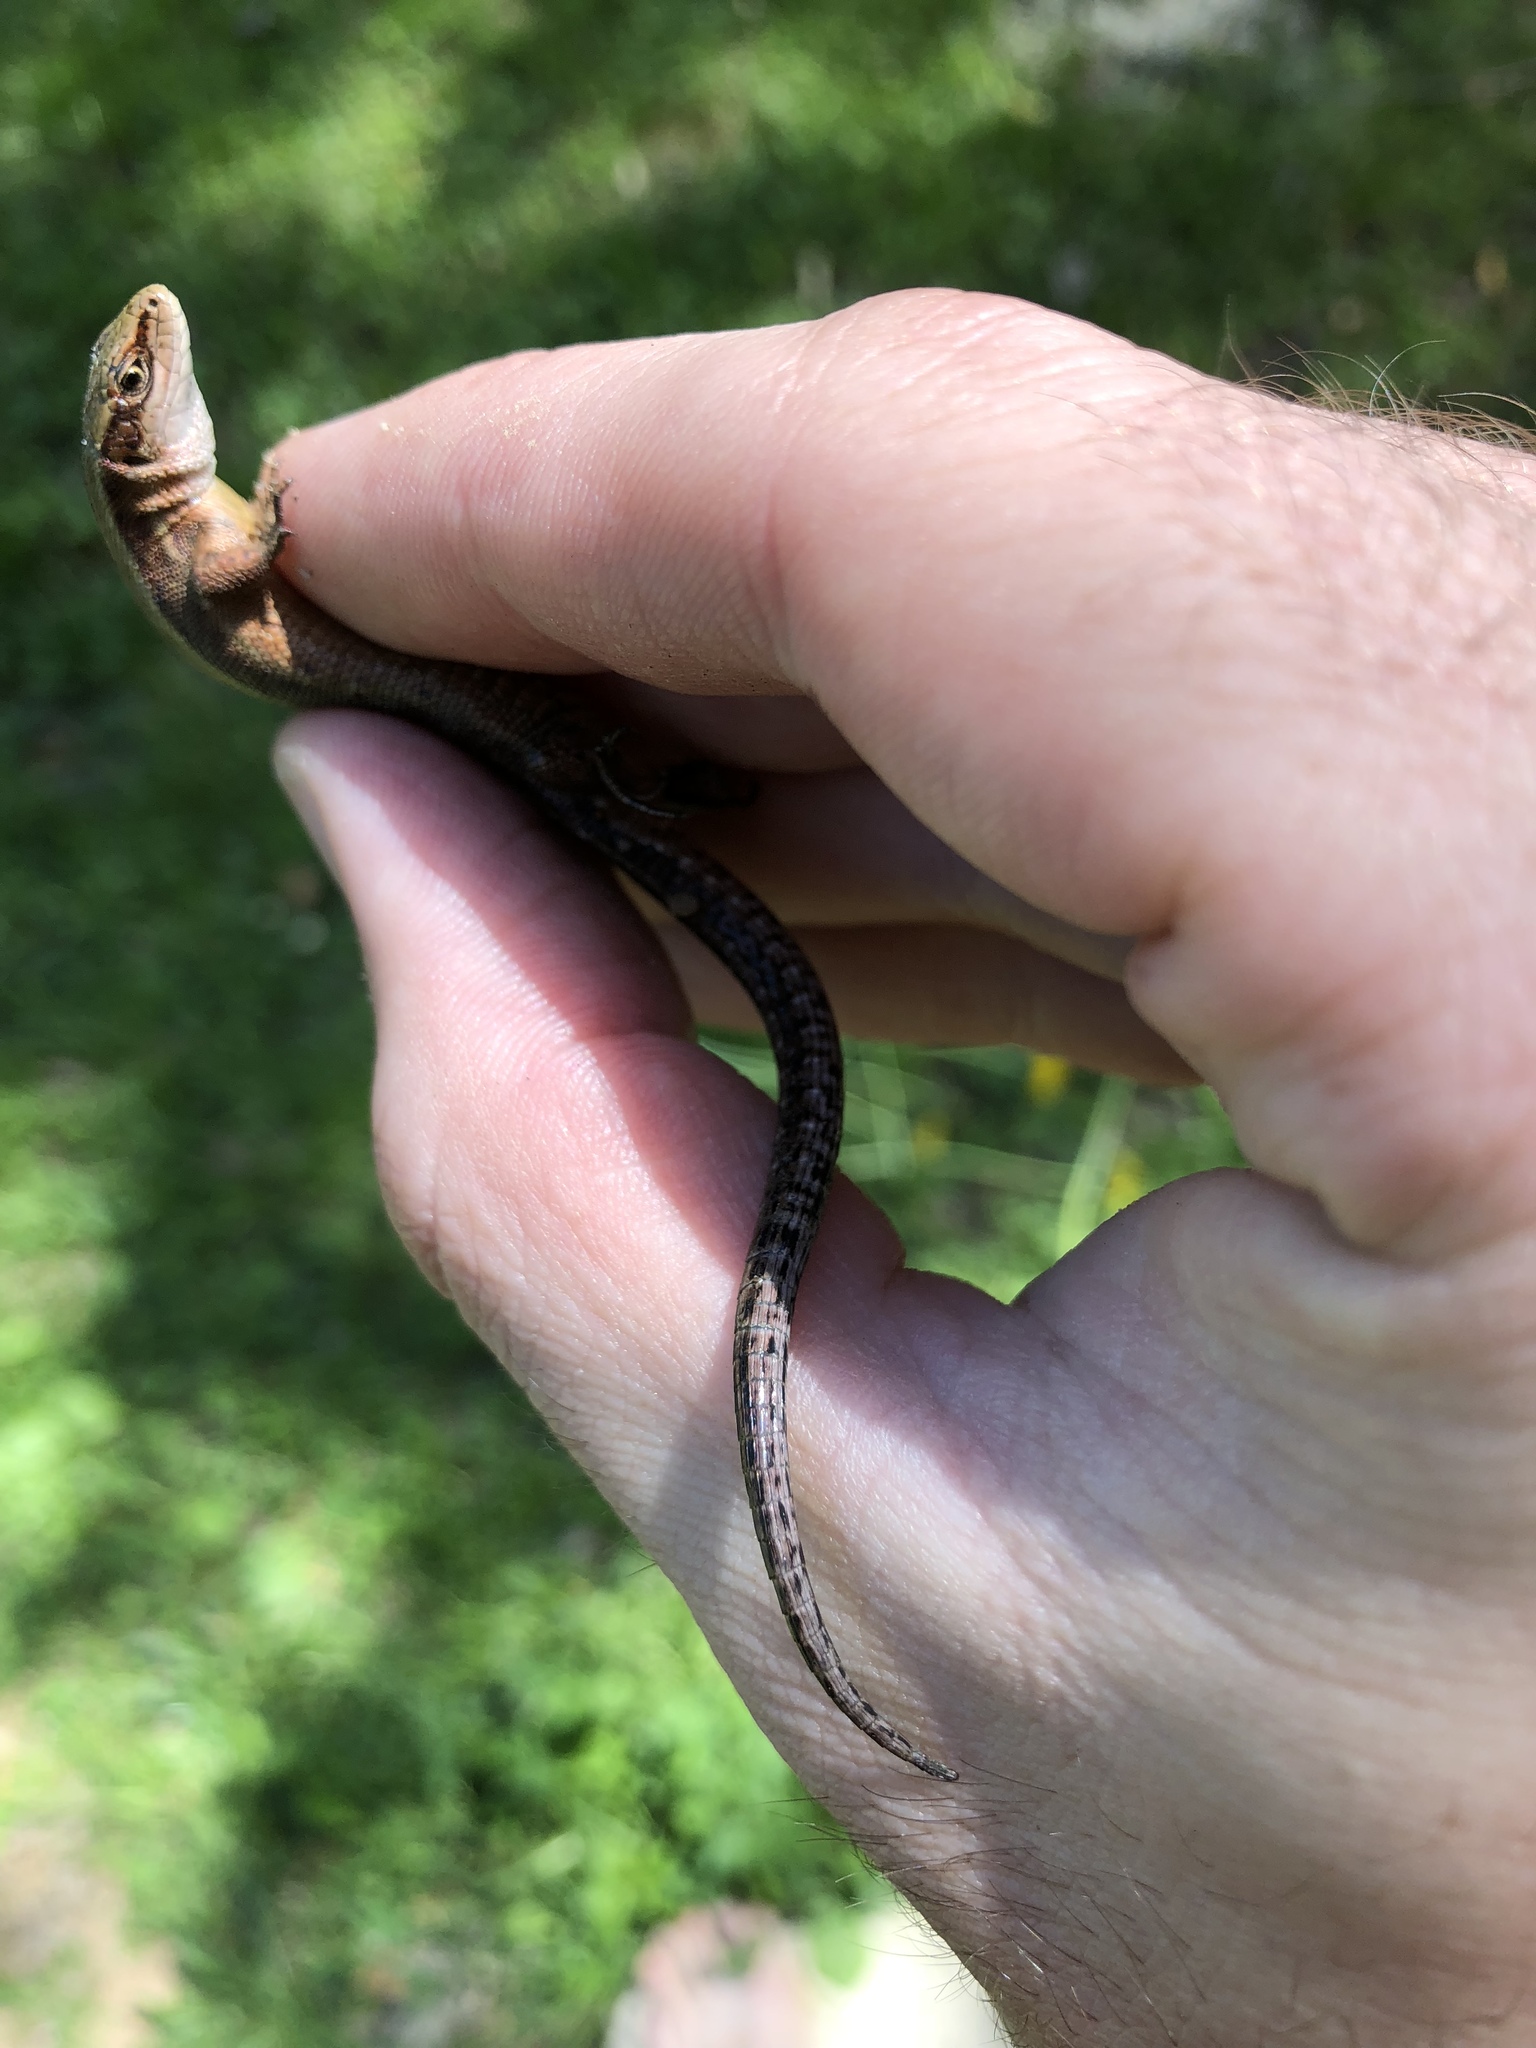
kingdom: Animalia
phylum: Chordata
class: Squamata
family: Lacertidae
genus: Zootoca
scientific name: Zootoca vivipara
